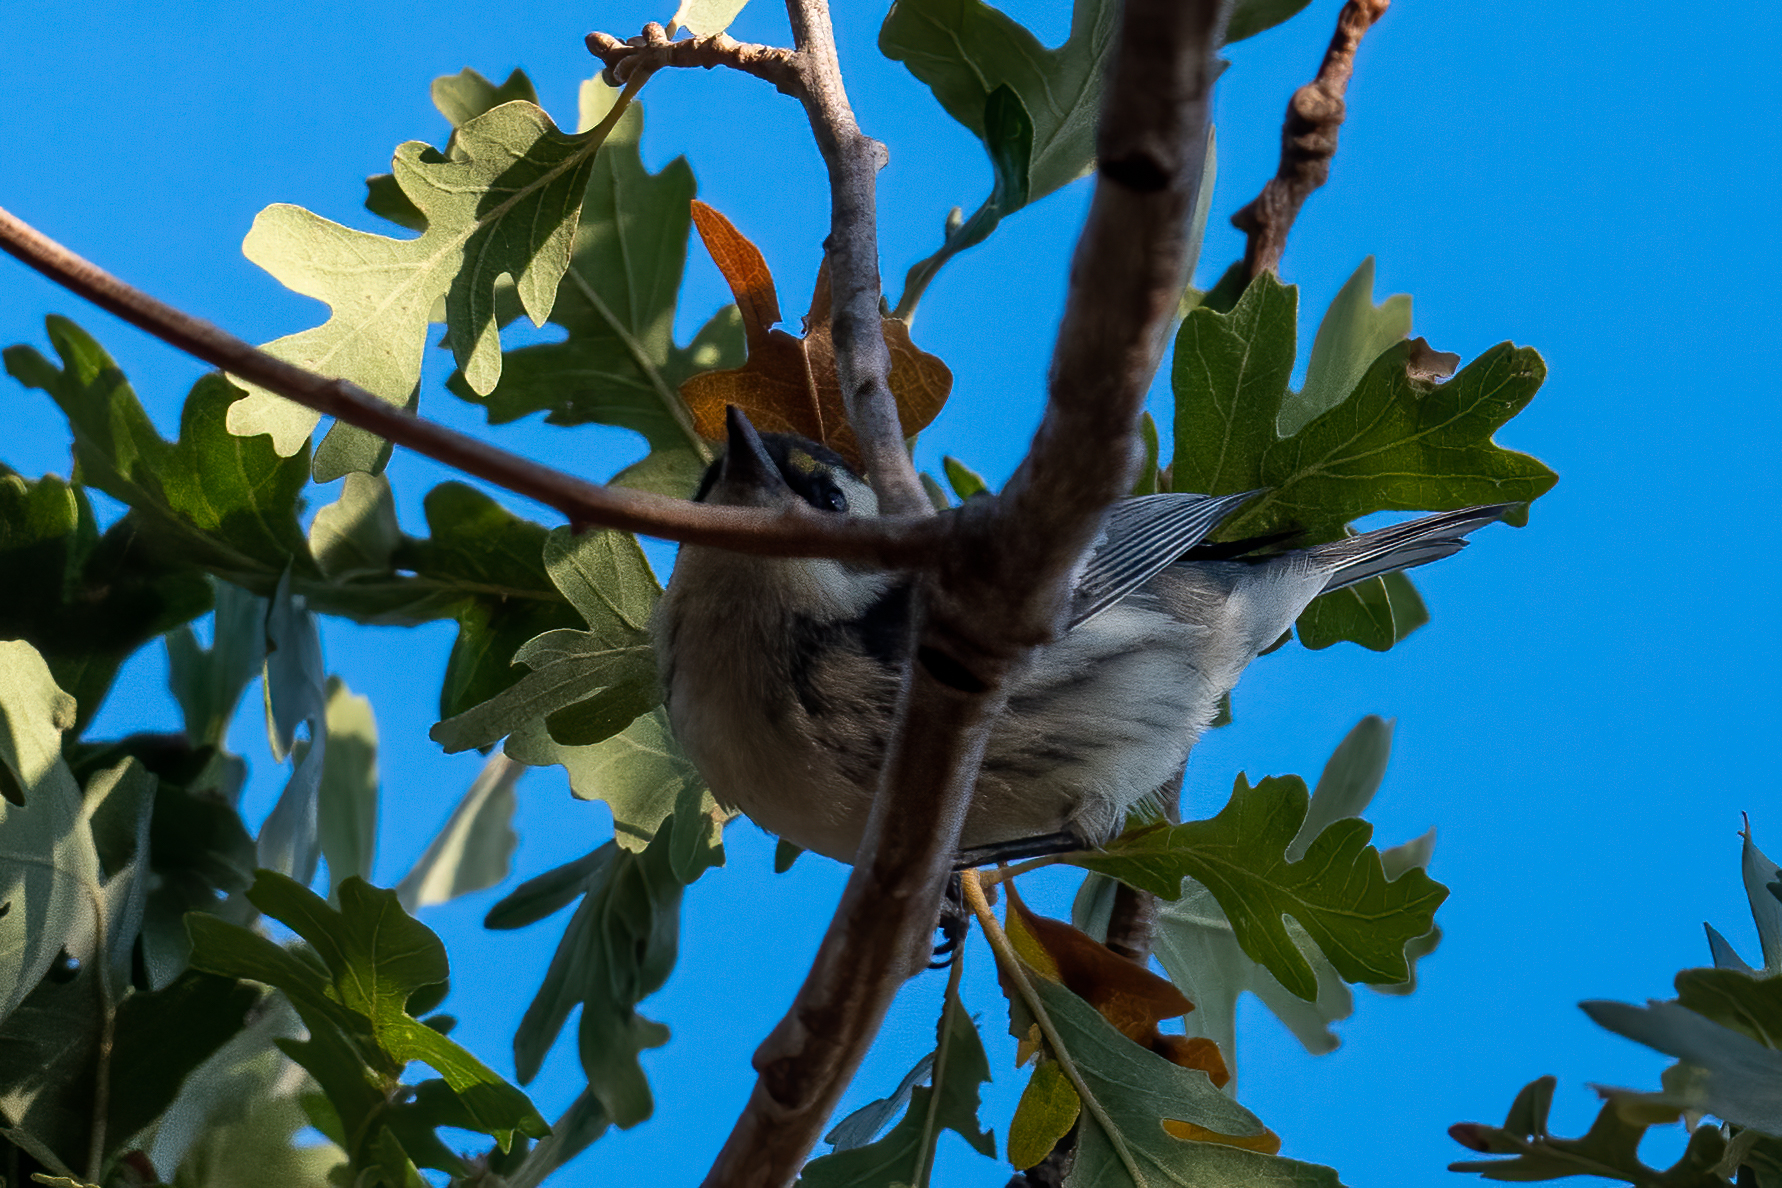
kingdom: Animalia
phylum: Chordata
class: Aves
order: Passeriformes
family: Parulidae
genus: Setophaga
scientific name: Setophaga nigrescens
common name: Black-throated gray warbler
